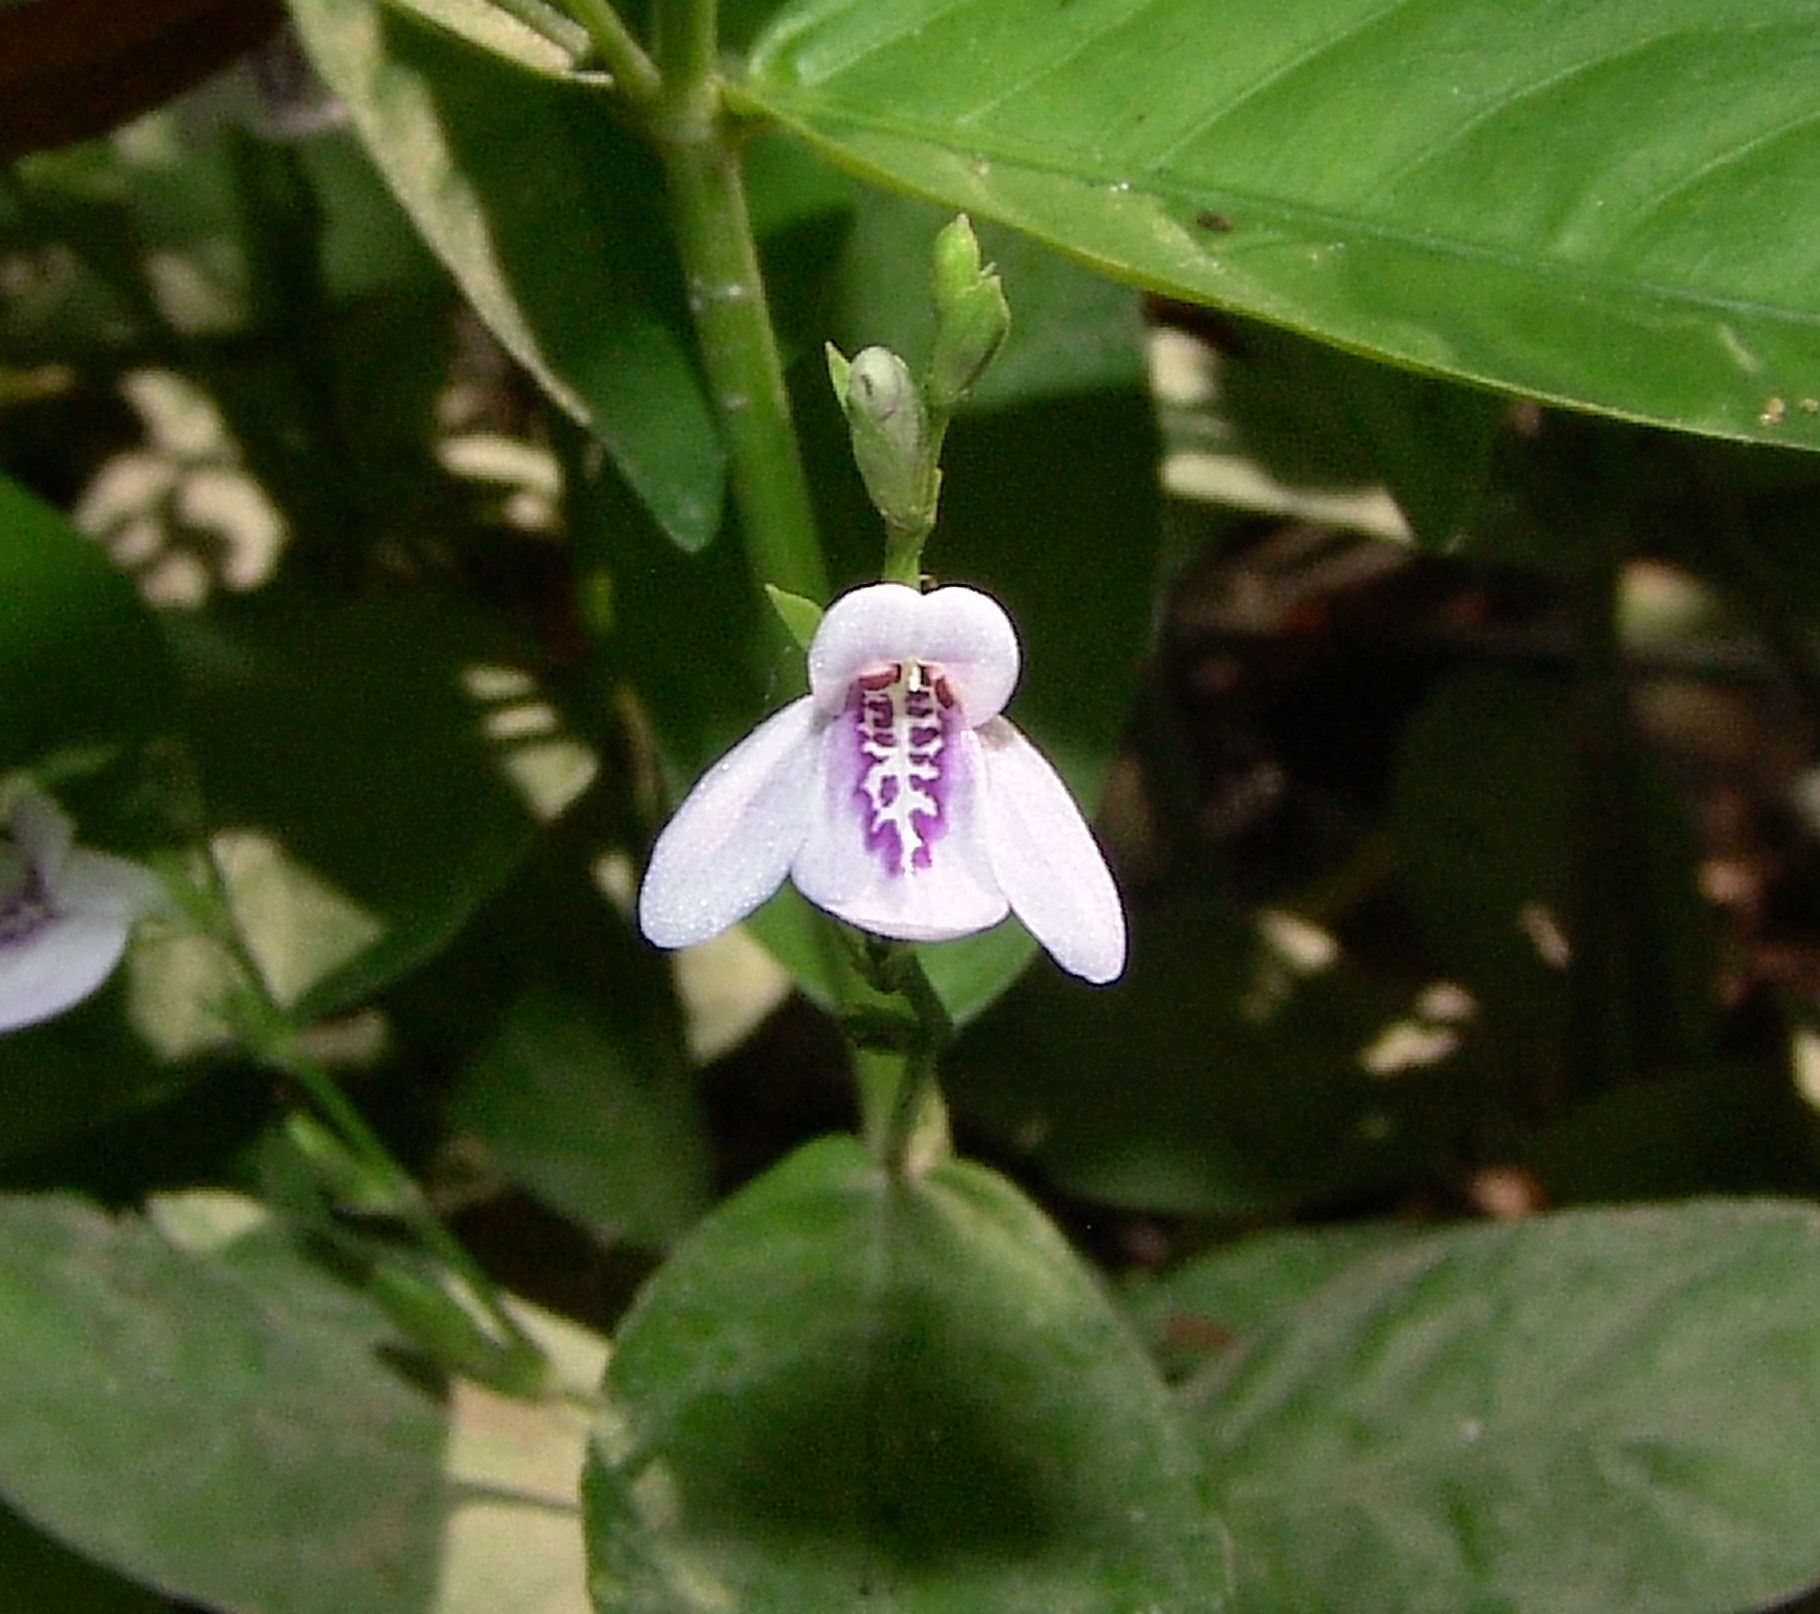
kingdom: Plantae
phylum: Tracheophyta
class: Magnoliopsida
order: Lamiales
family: Acanthaceae
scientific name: Acanthaceae
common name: Acanthaceae
